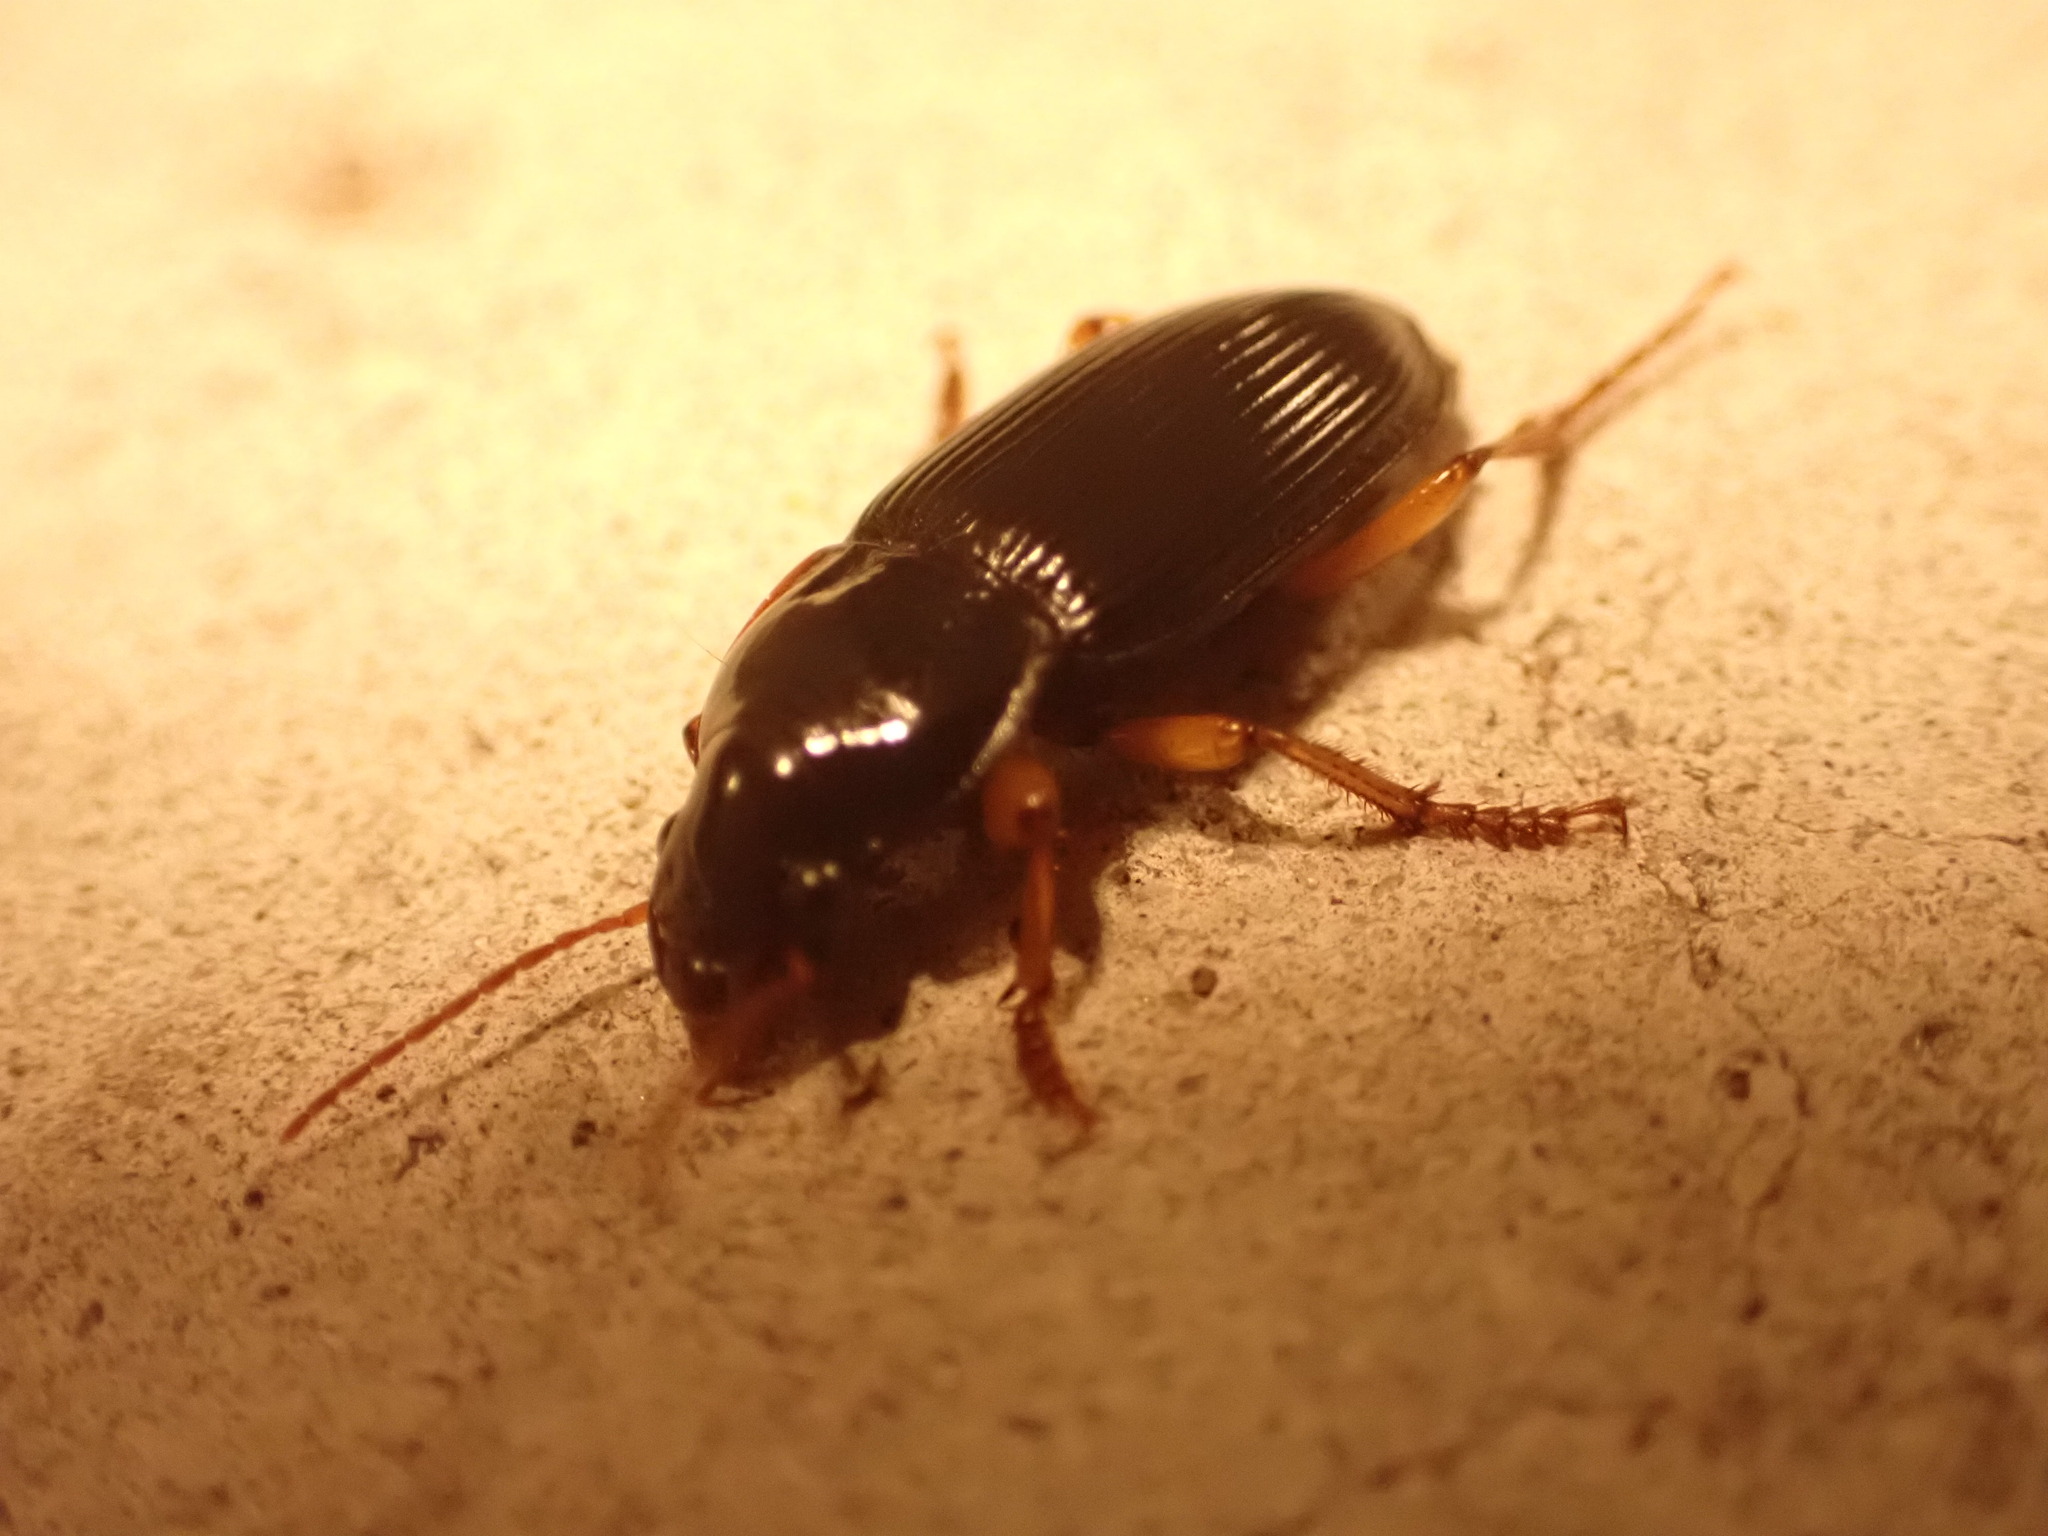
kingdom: Animalia
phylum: Arthropoda
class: Insecta
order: Coleoptera
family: Carabidae
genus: Harpalus
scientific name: Harpalus pensylvanicus
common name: Pennsylvania dingy ground beetle
